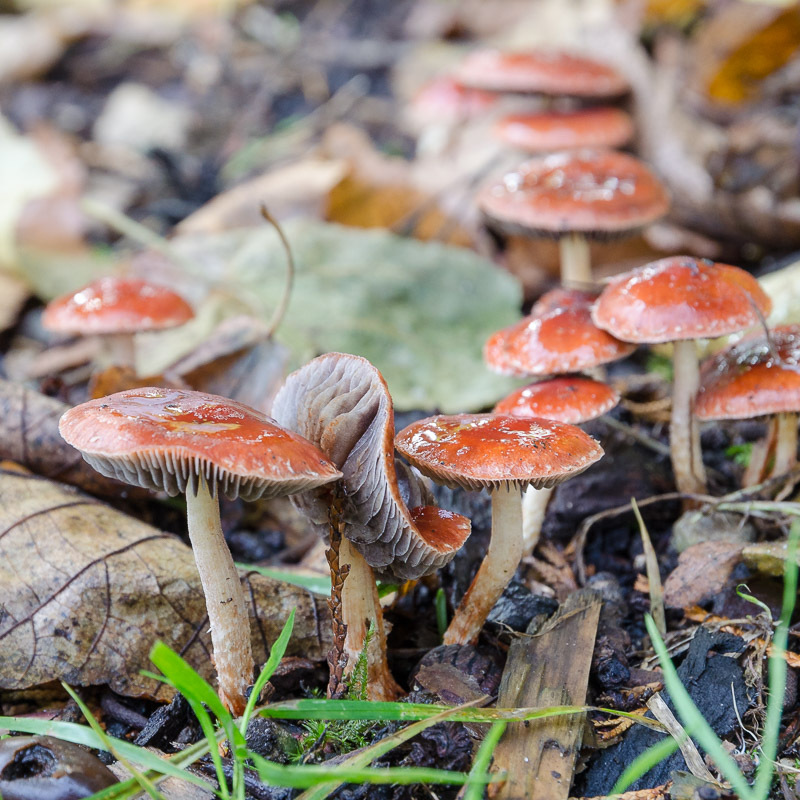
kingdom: Fungi
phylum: Basidiomycota
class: Agaricomycetes
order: Agaricales
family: Strophariaceae
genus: Leratiomyces
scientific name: Leratiomyces ceres
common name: Redlead roundhead
